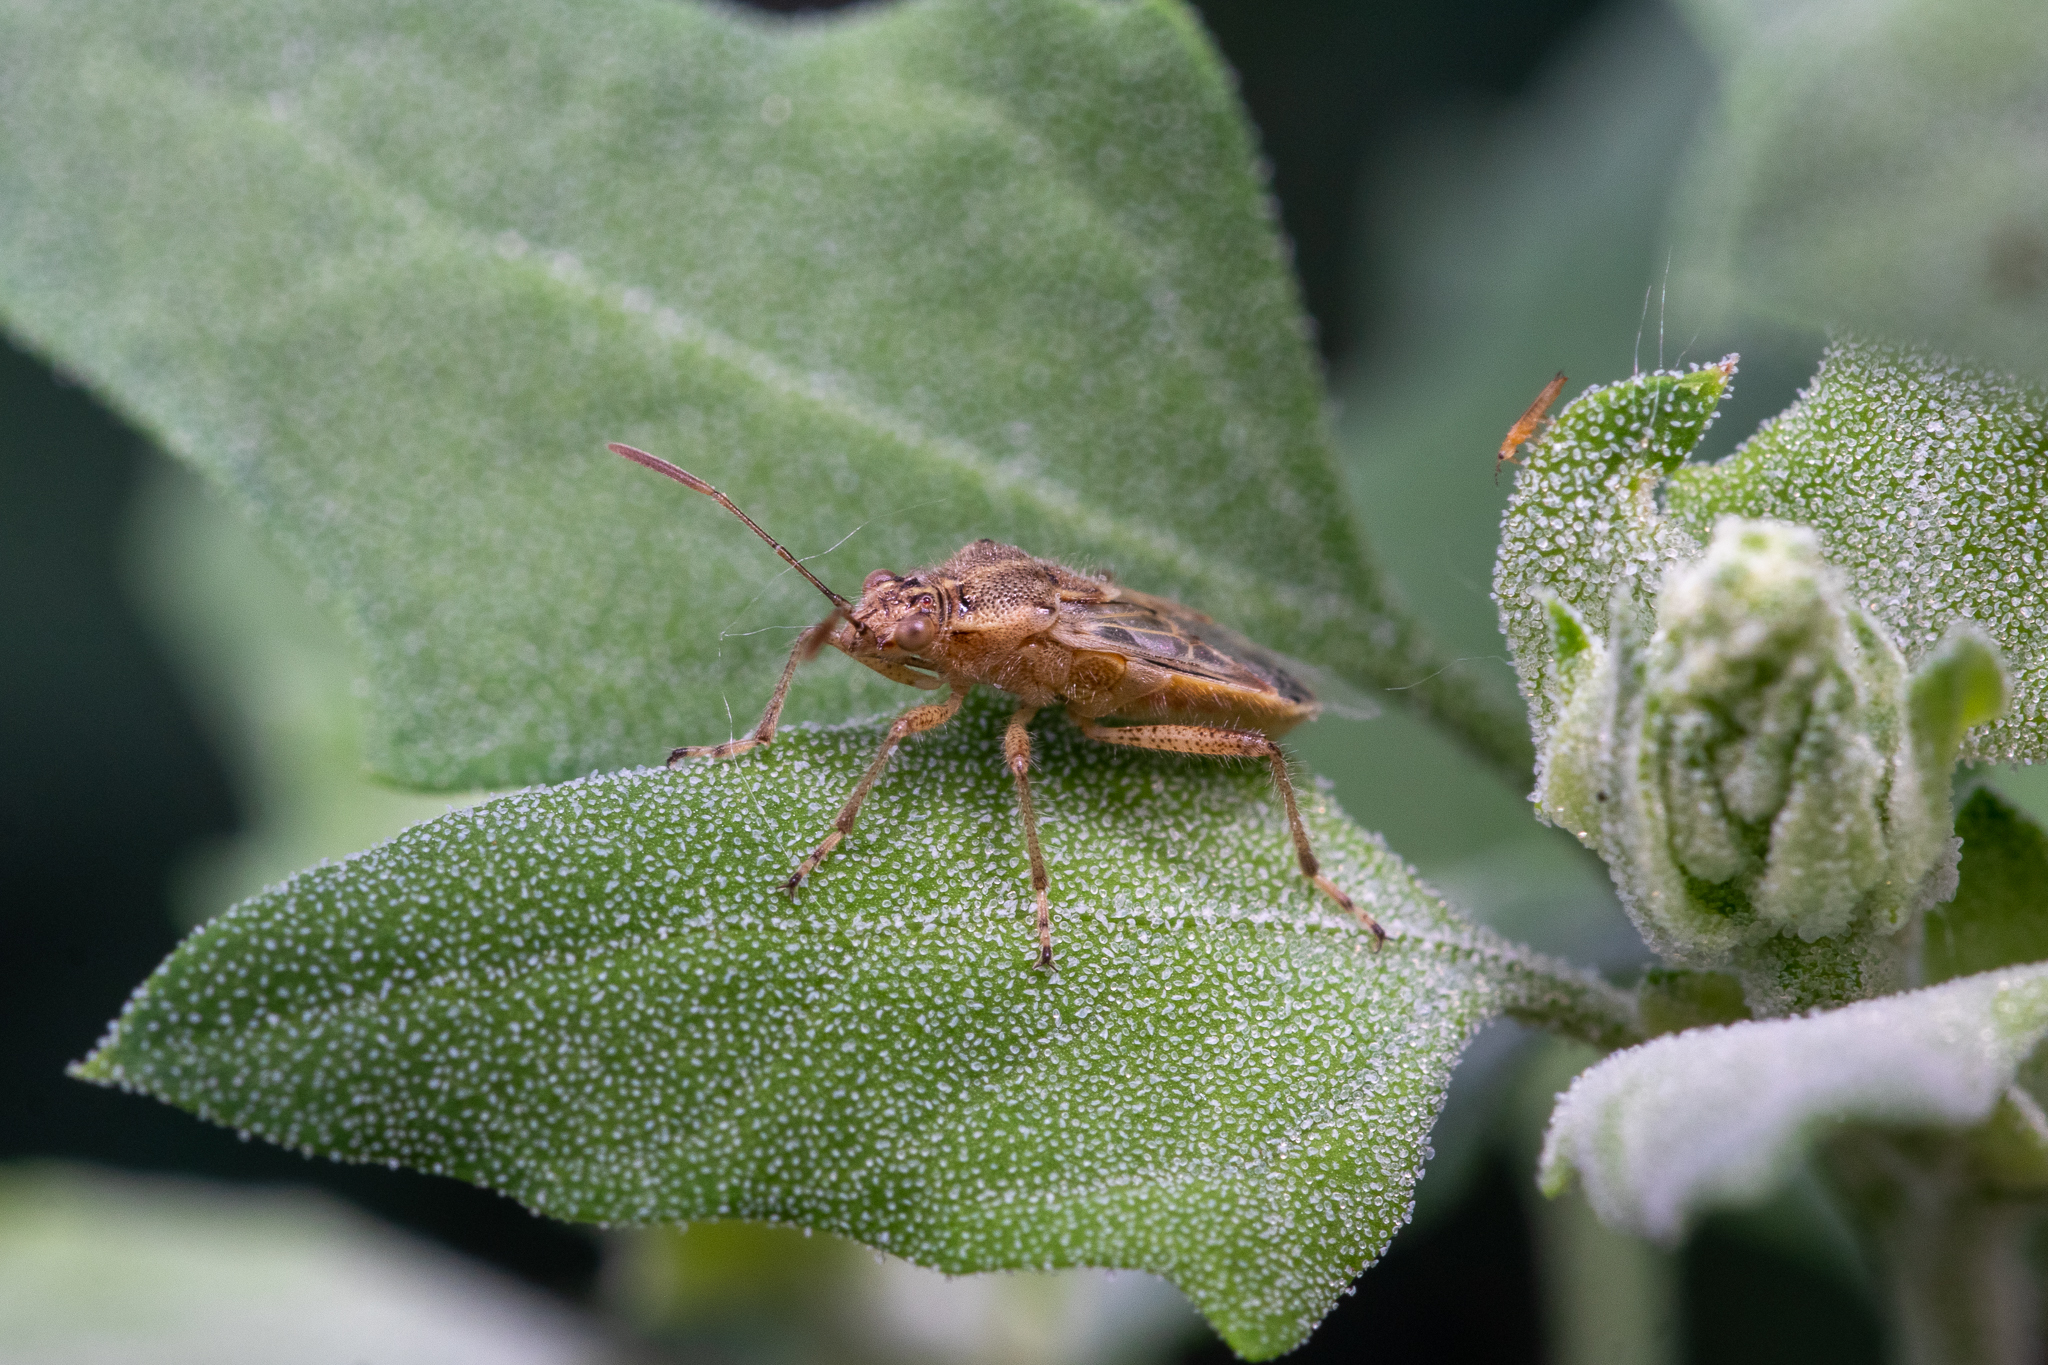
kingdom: Animalia
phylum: Arthropoda
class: Insecta
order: Hemiptera
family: Rhopalidae
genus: Liorhyssus
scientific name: Liorhyssus hyalinus
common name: Scentless plant bug
